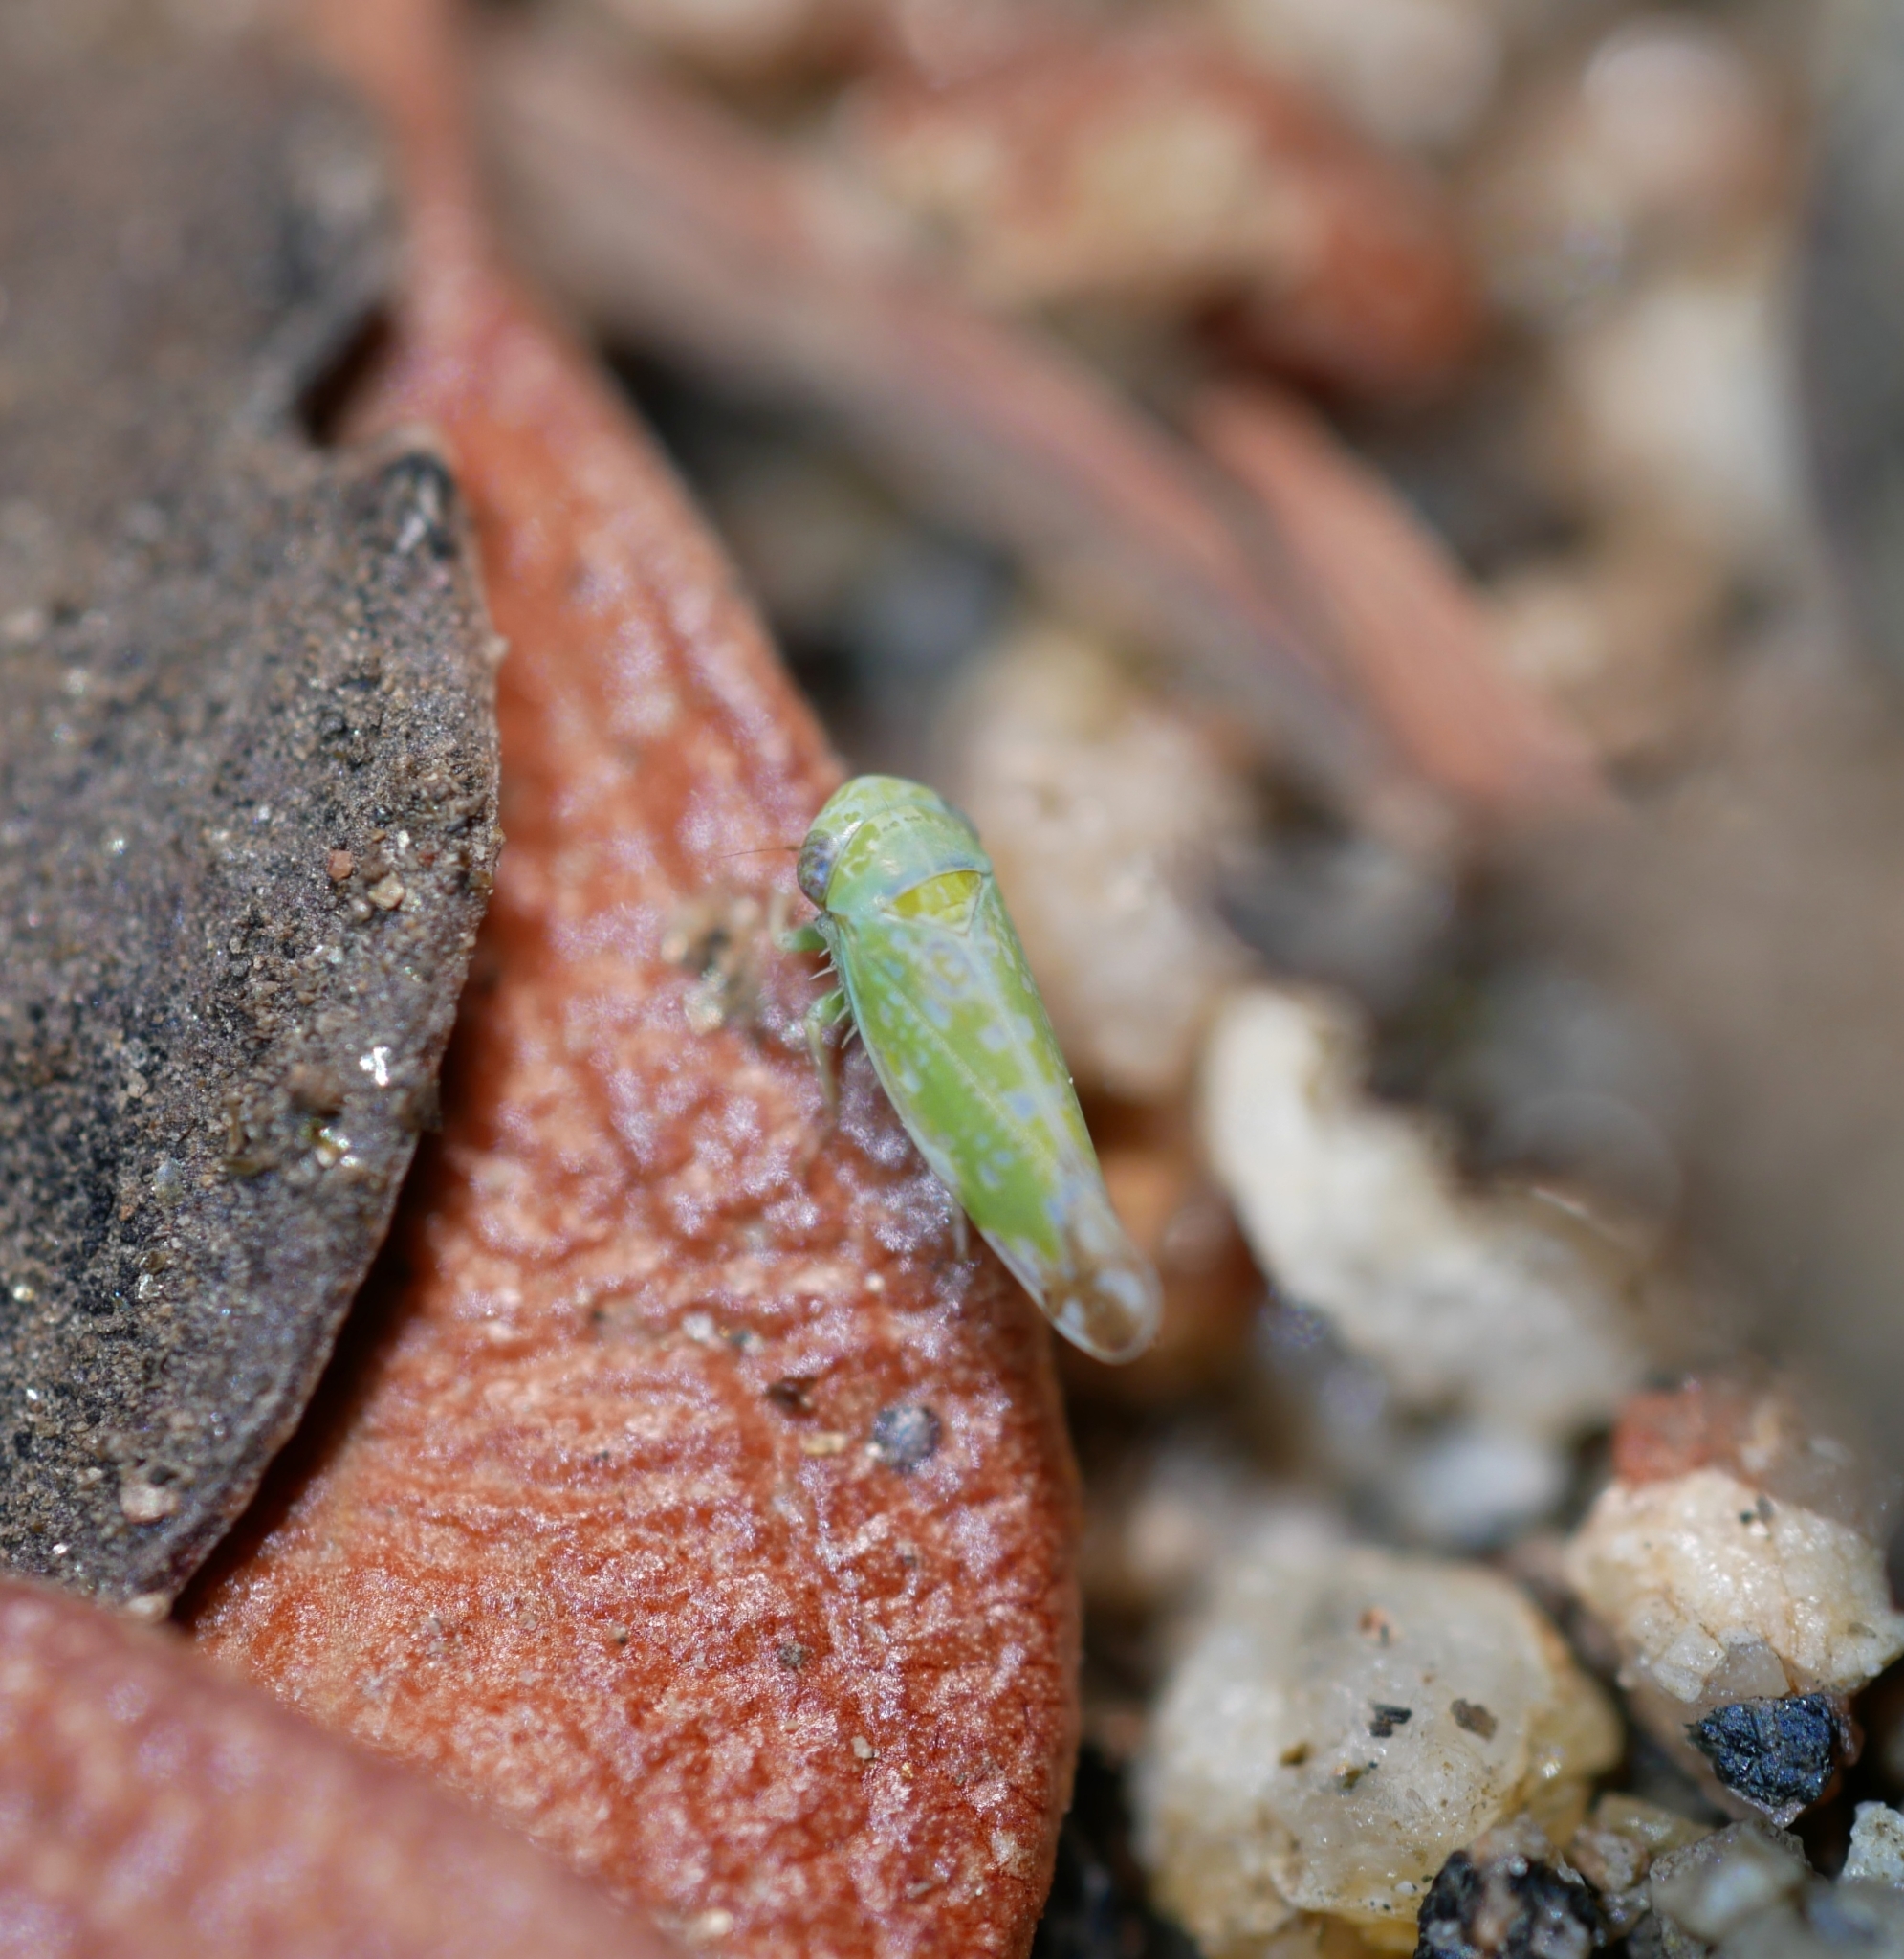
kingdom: Animalia
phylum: Arthropoda
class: Insecta
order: Hemiptera
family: Cicadellidae
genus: Opsius
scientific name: Opsius stactogalus
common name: Leafhopper
